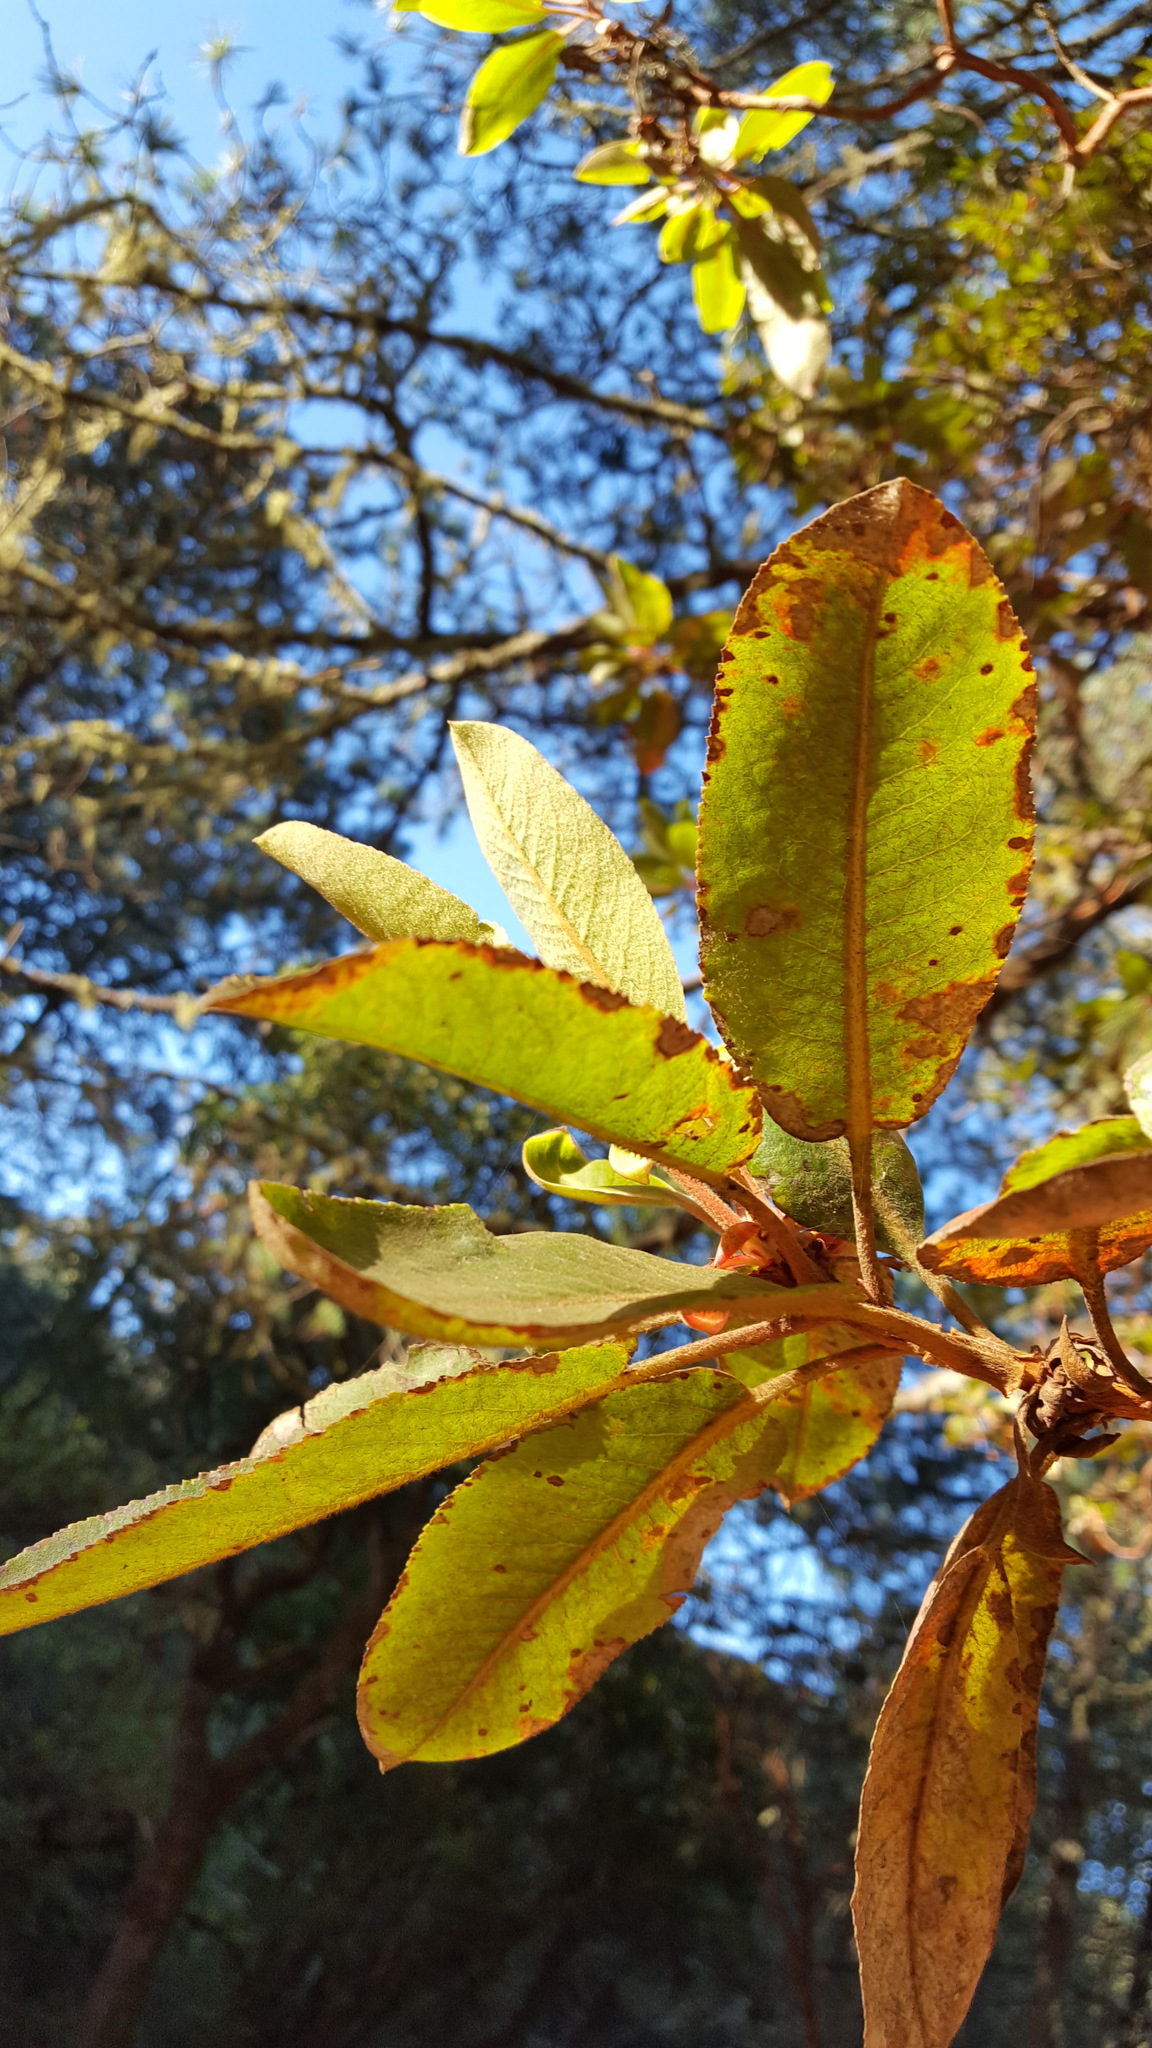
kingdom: Plantae
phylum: Tracheophyta
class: Magnoliopsida
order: Ericales
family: Ericaceae
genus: Arbutus
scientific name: Arbutus xalapensis
